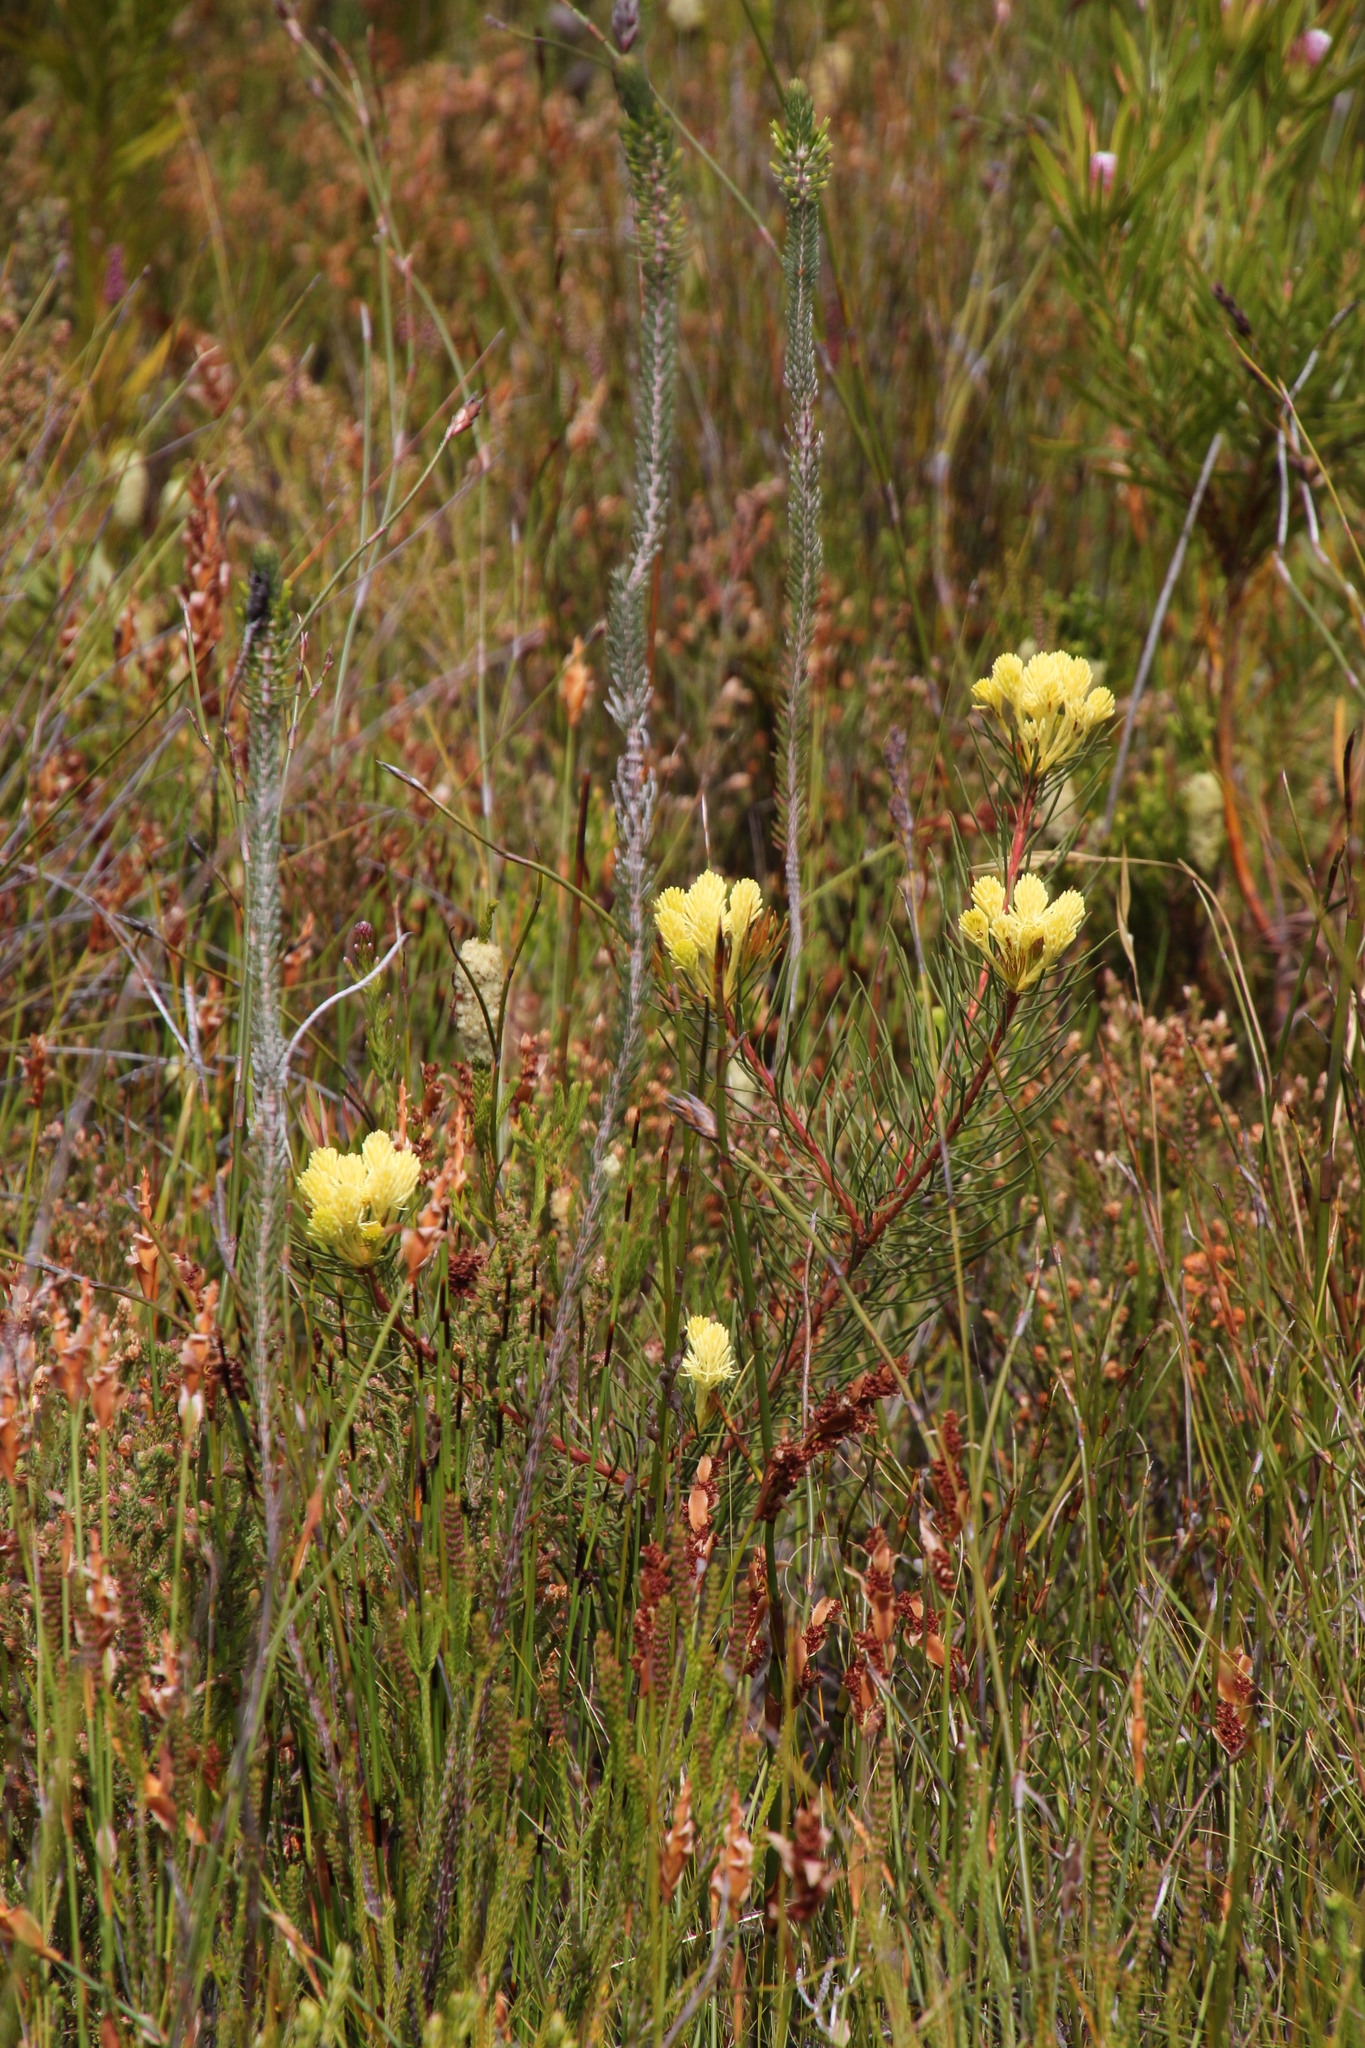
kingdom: Plantae
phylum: Tracheophyta
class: Magnoliopsida
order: Proteales
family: Proteaceae
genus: Aulax
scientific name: Aulax
